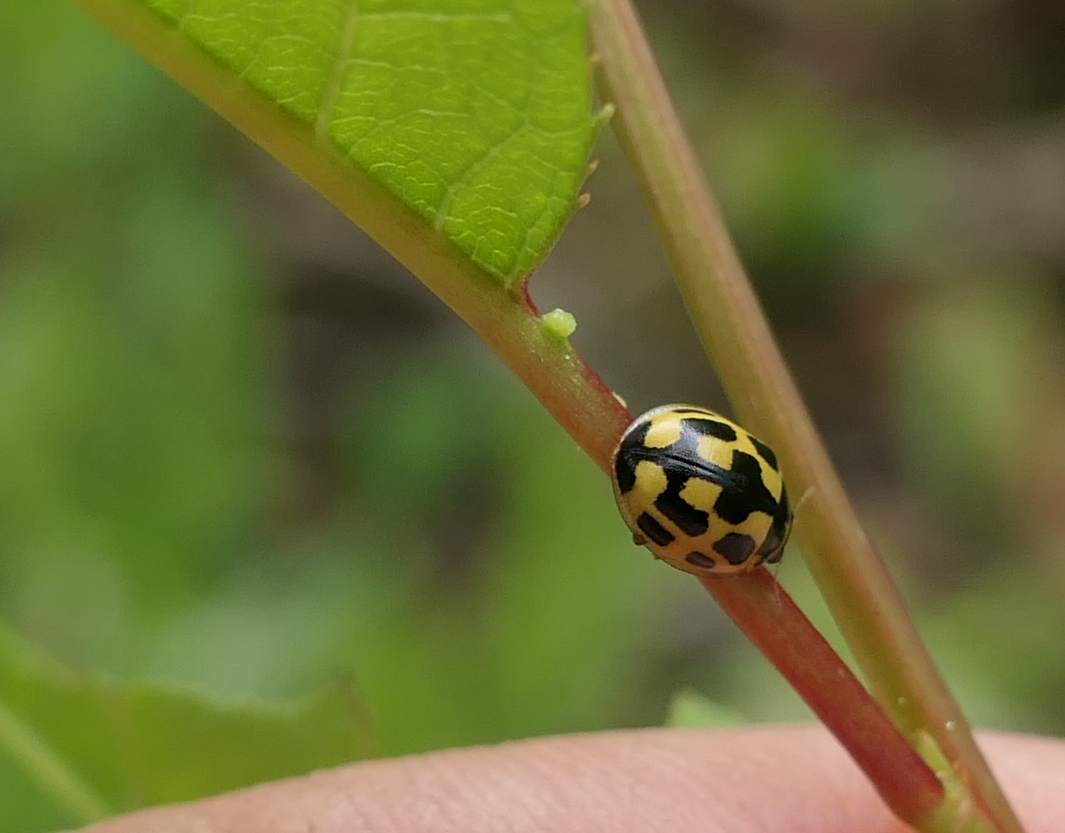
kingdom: Animalia
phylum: Arthropoda
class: Insecta
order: Coleoptera
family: Coccinellidae
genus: Propylaea
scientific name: Propylaea quatuordecimpunctata
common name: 14-spotted ladybird beetle
